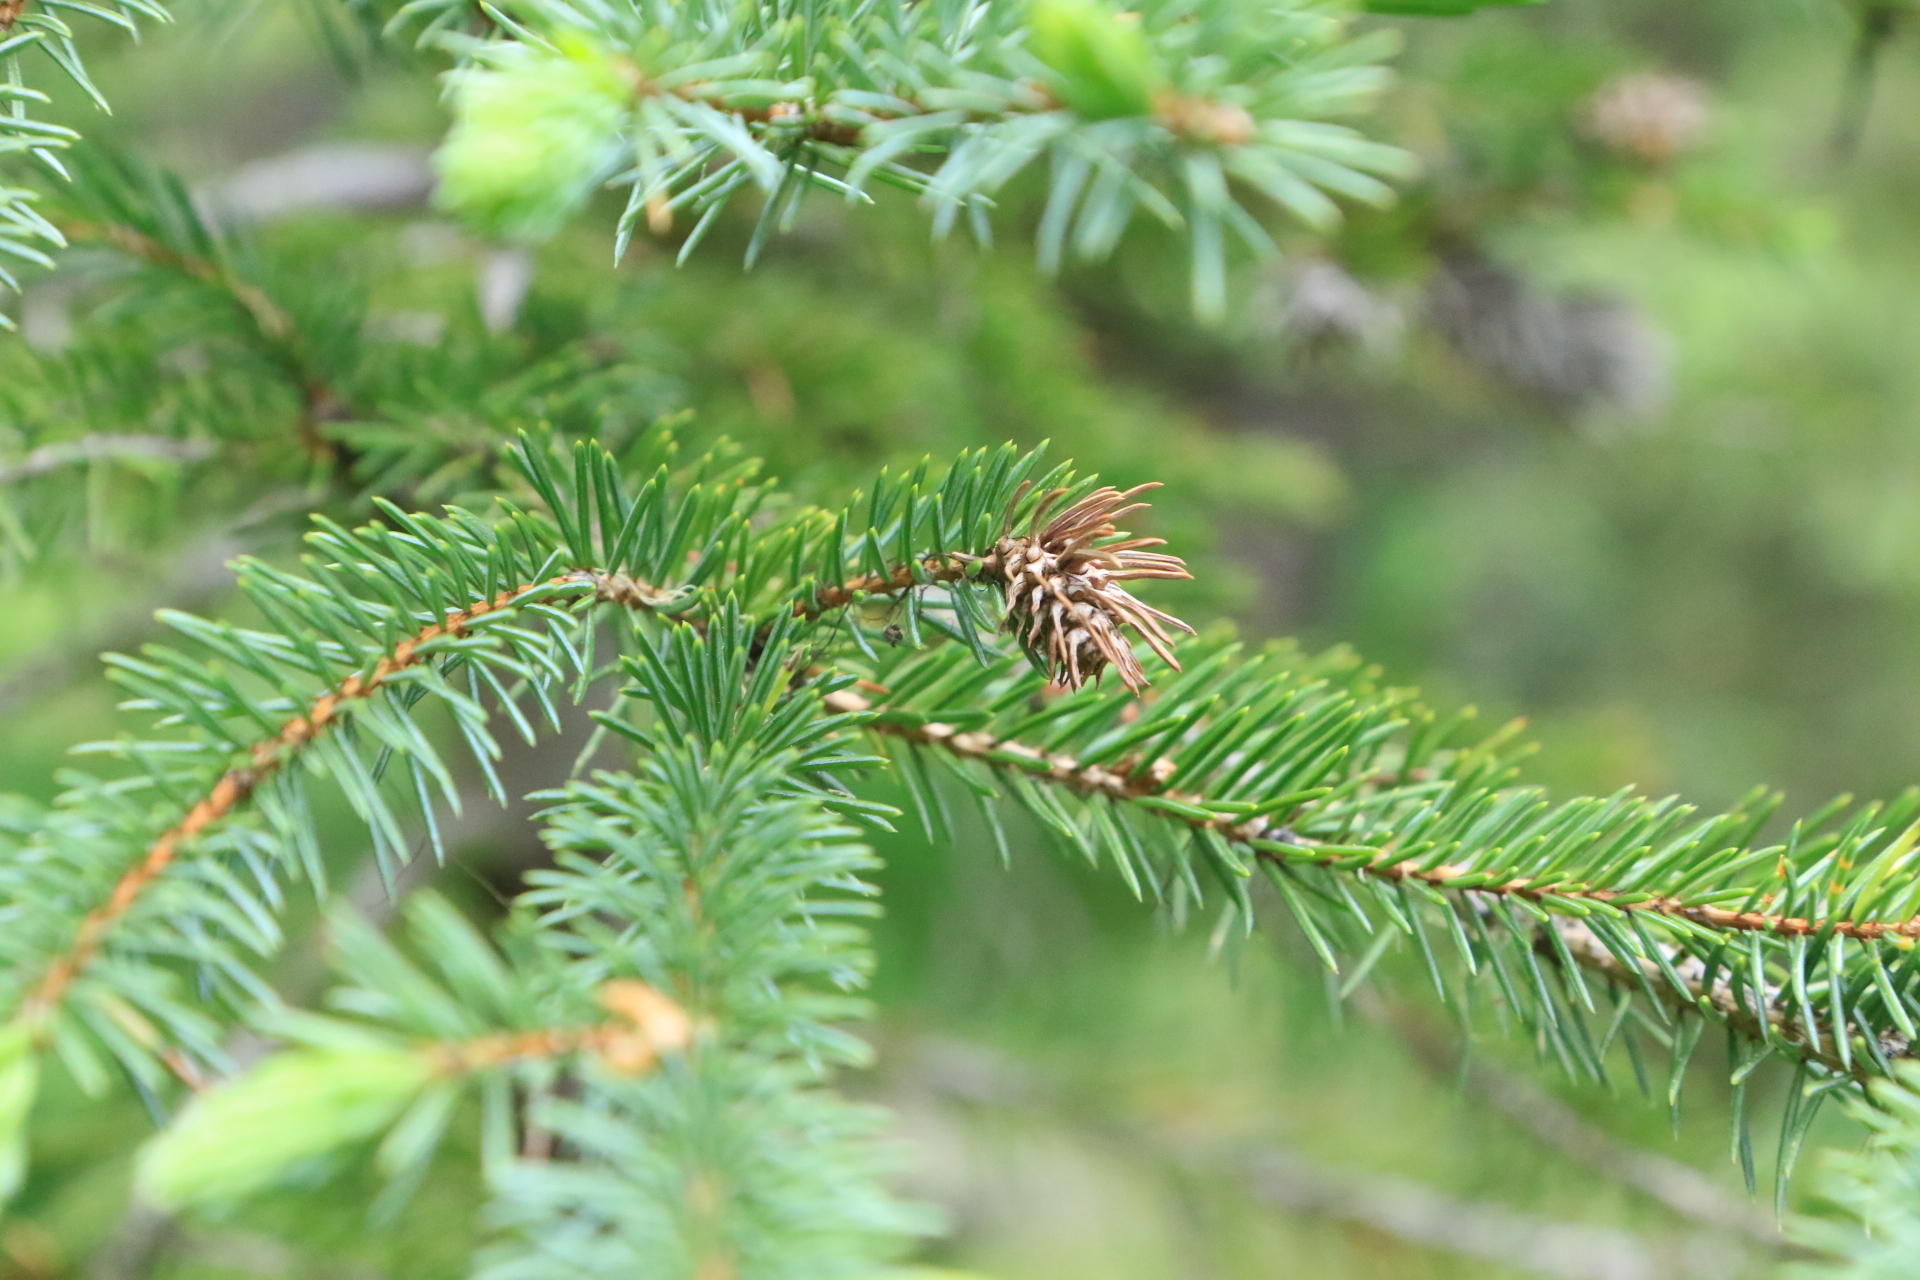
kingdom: Plantae
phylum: Tracheophyta
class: Pinopsida
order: Pinales
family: Pinaceae
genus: Picea
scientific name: Picea engelmannii
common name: Engelmann spruce
